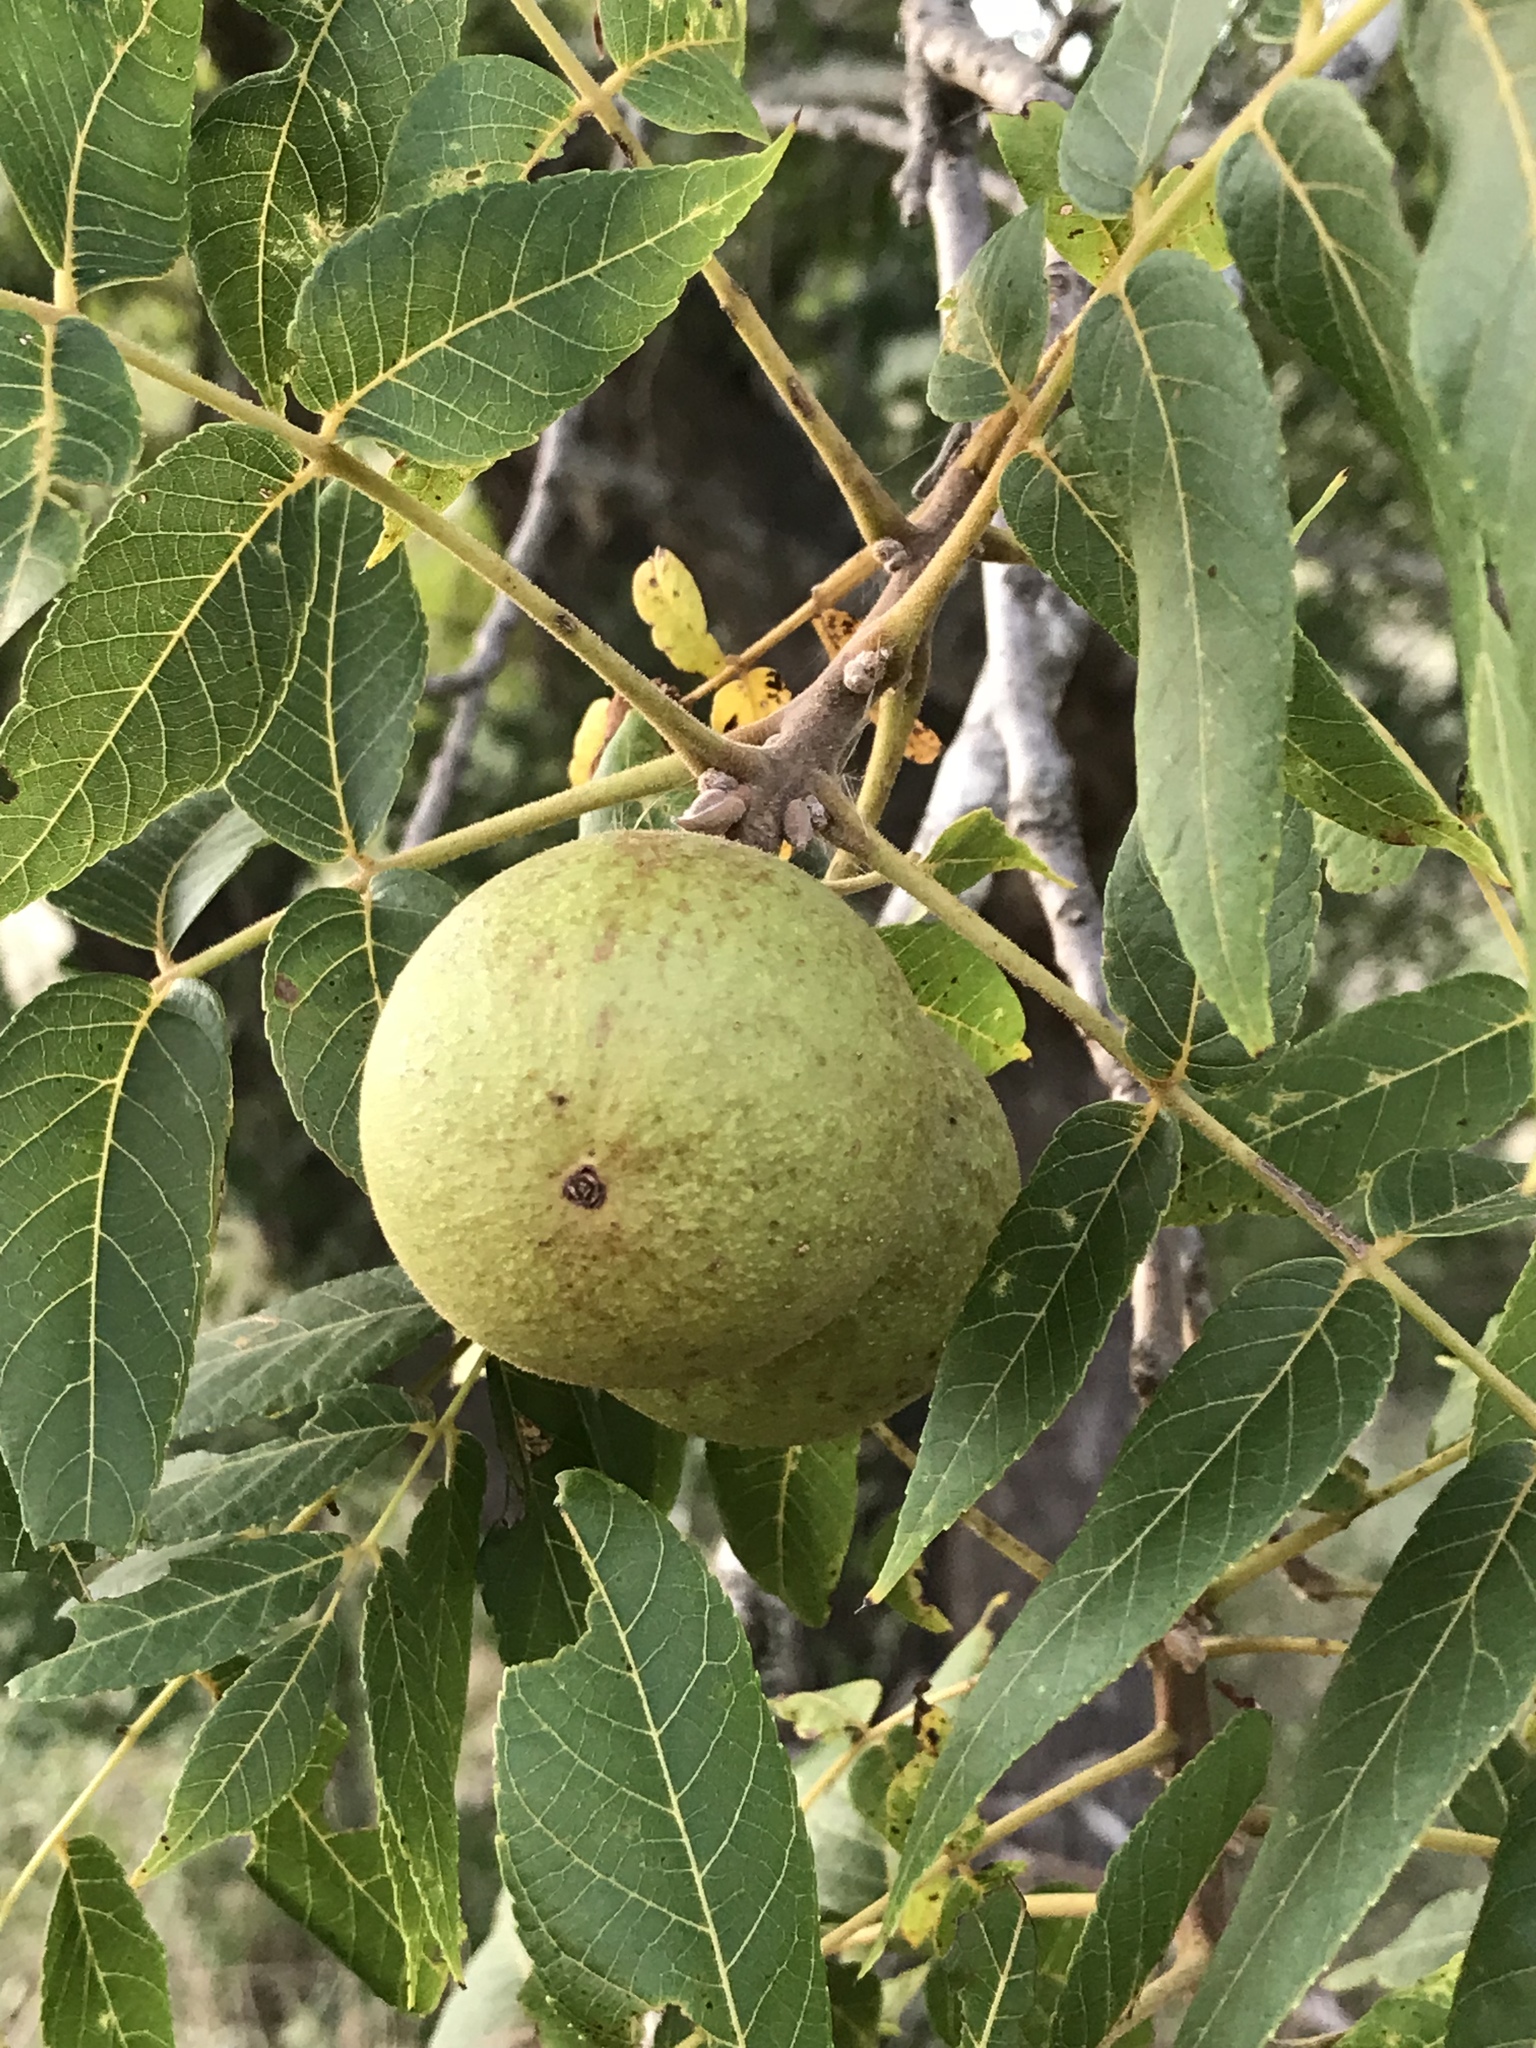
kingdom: Plantae
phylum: Tracheophyta
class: Magnoliopsida
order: Fagales
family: Juglandaceae
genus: Juglans
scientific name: Juglans major
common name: Arizona walnut
